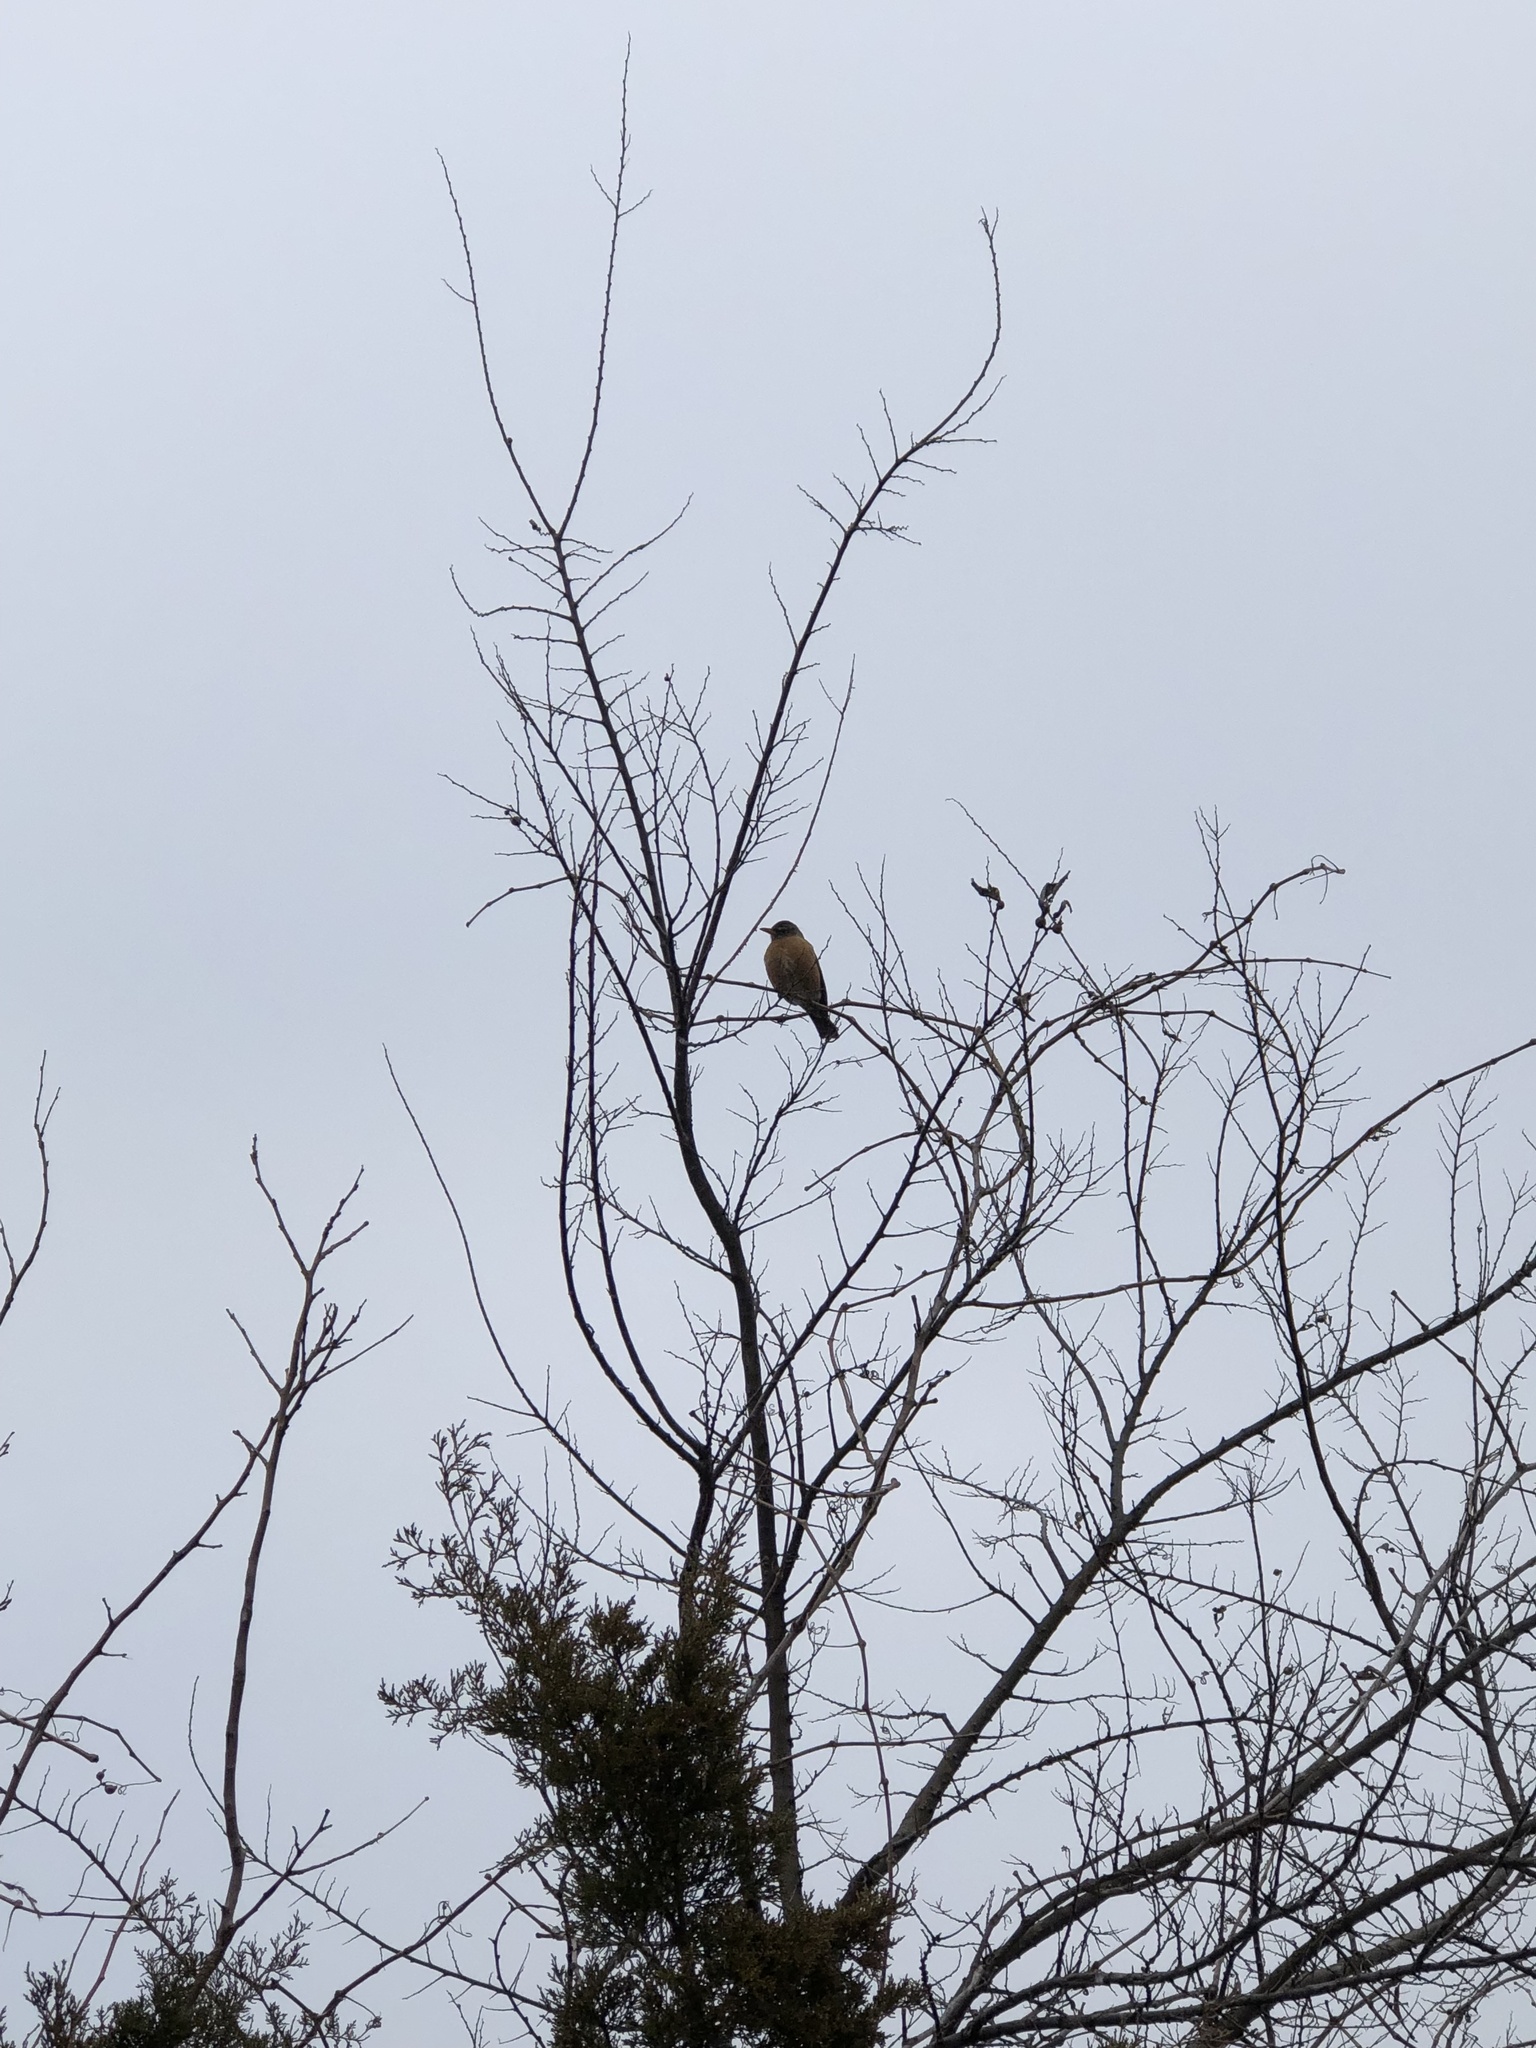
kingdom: Animalia
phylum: Chordata
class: Aves
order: Passeriformes
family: Turdidae
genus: Turdus
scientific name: Turdus migratorius
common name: American robin
